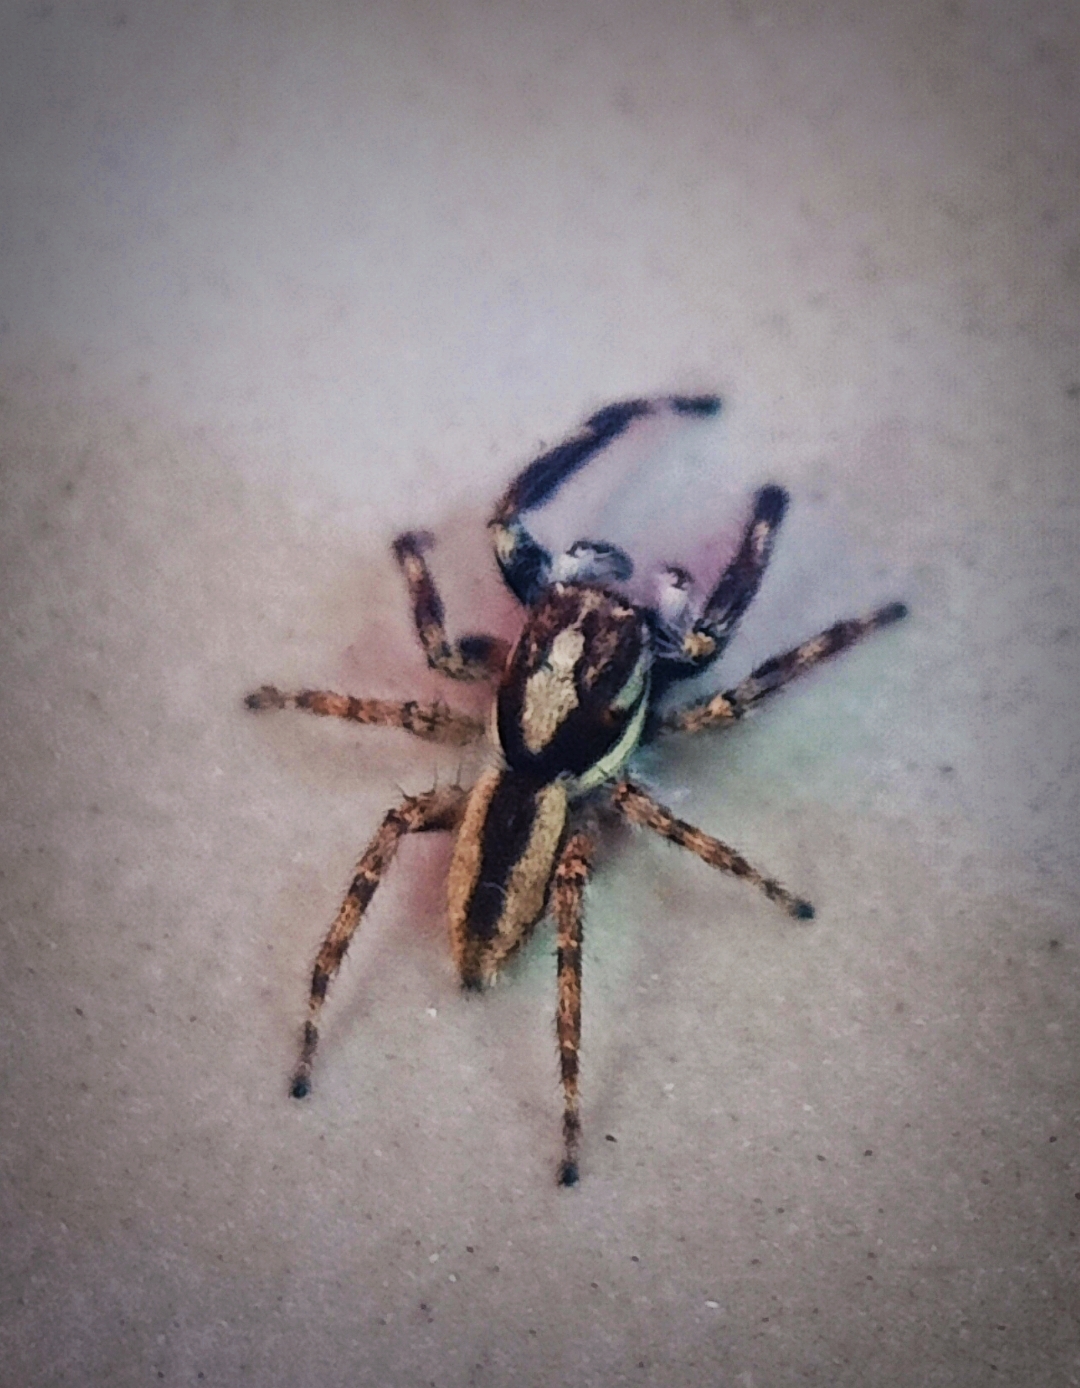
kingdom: Animalia
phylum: Arthropoda
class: Arachnida
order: Araneae
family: Salticidae
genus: Menemerus
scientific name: Menemerus bivittatus
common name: Gray wall jumper
